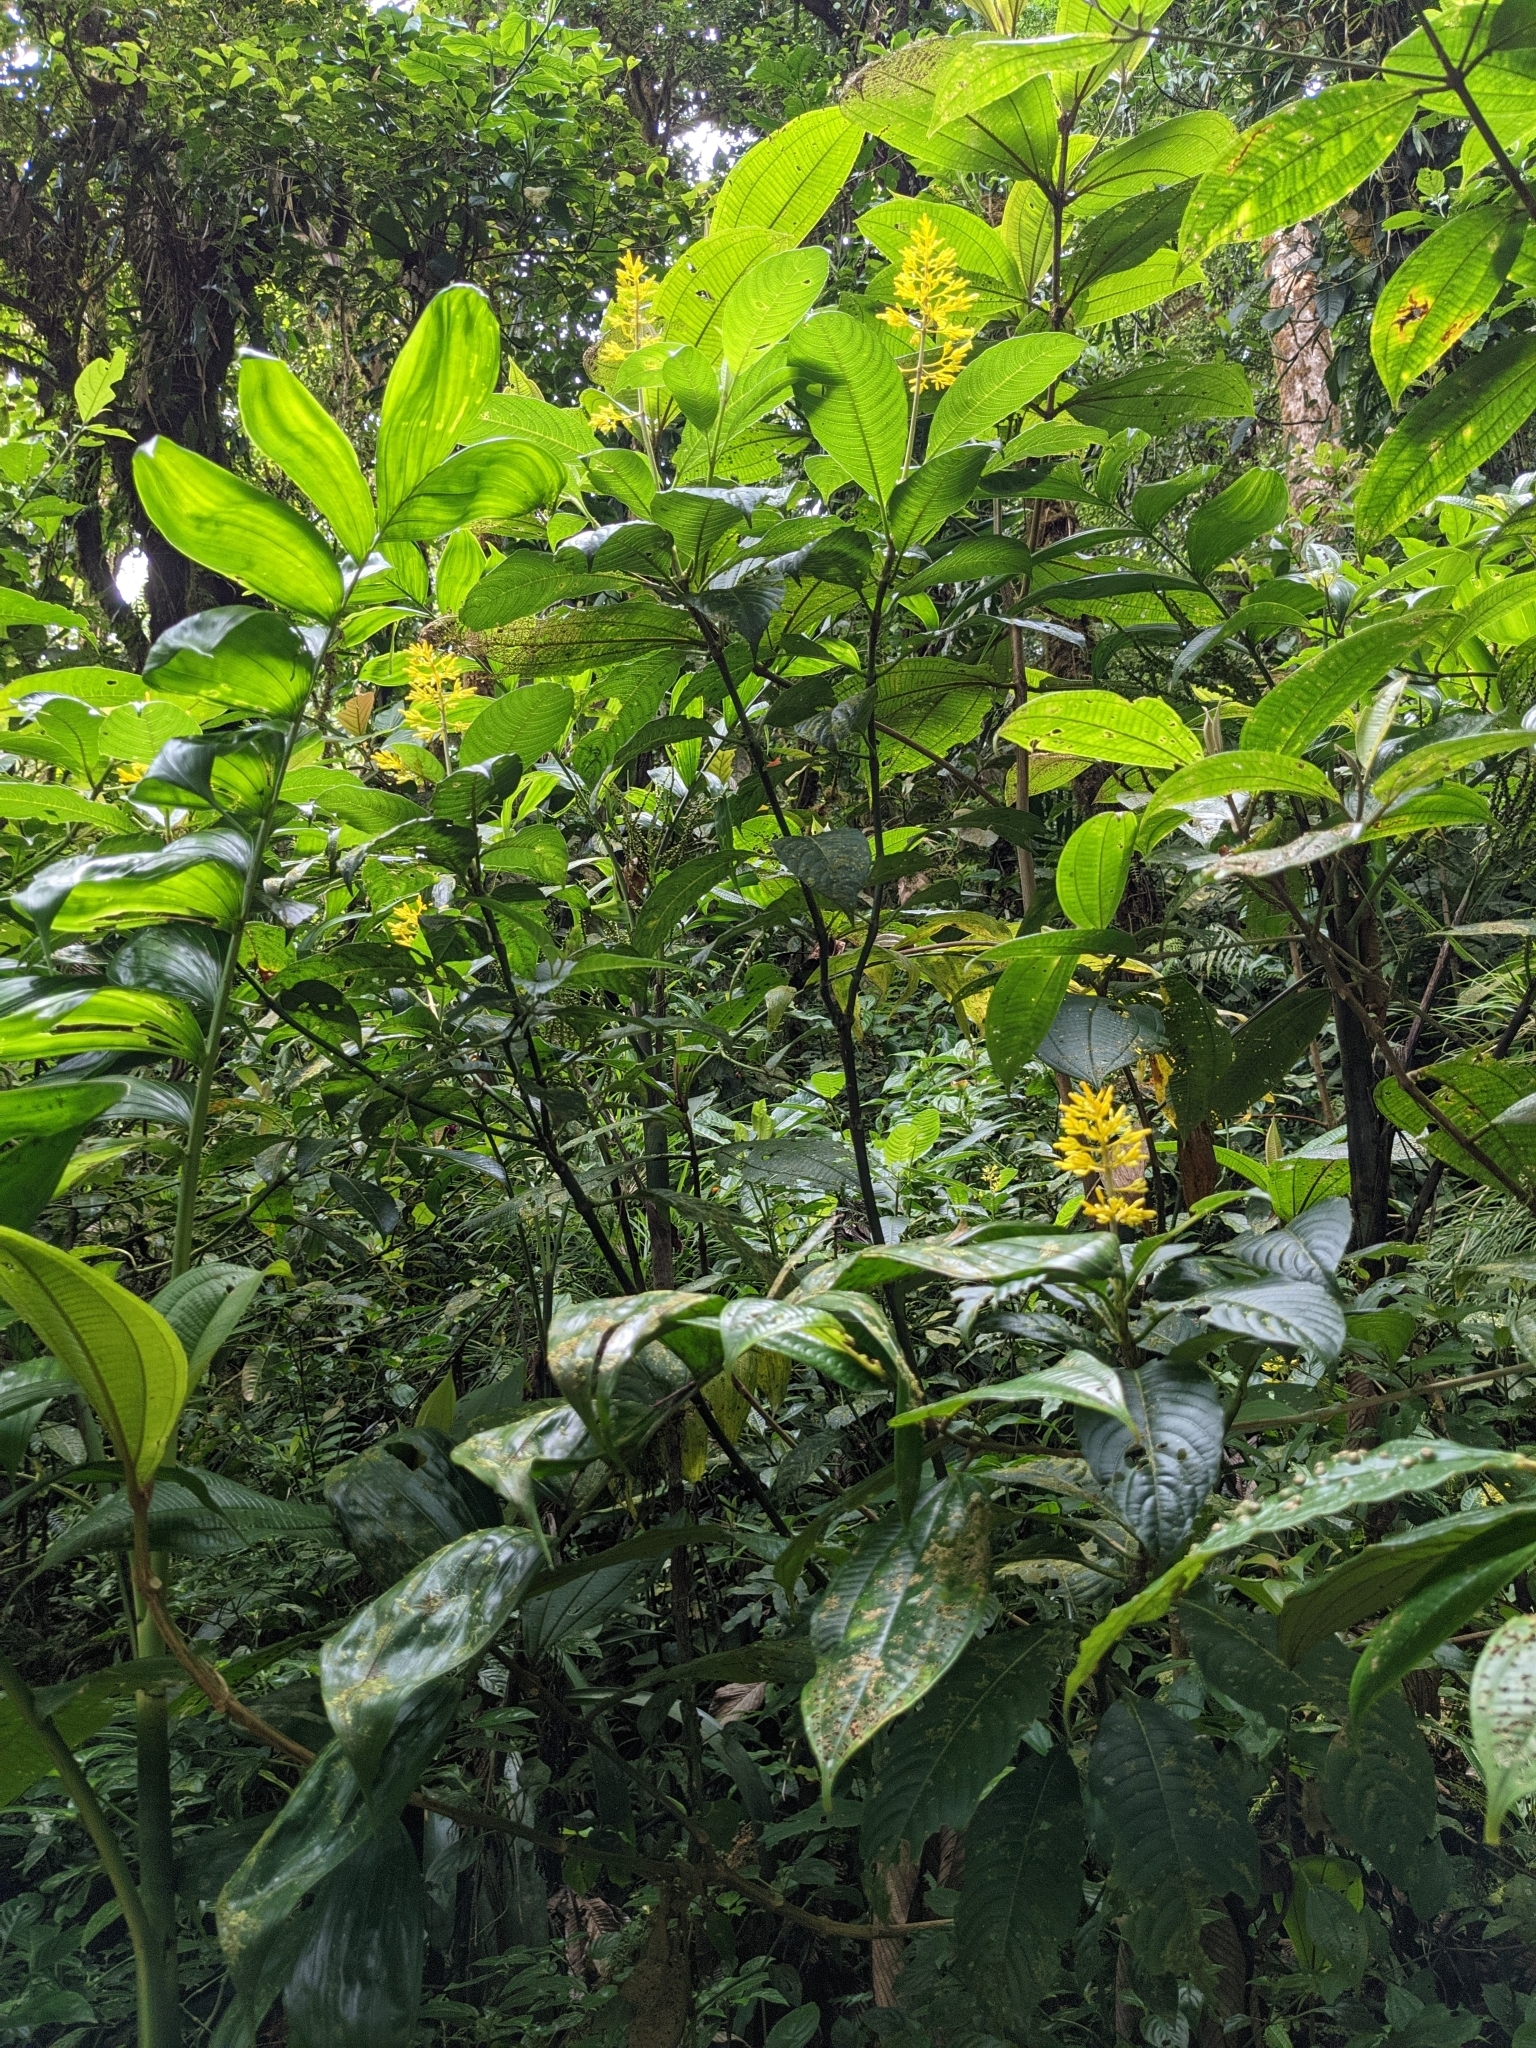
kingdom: Plantae
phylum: Tracheophyta
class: Magnoliopsida
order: Gentianales
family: Rubiaceae
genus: Palicourea
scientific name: Palicourea lasiorrhachis
